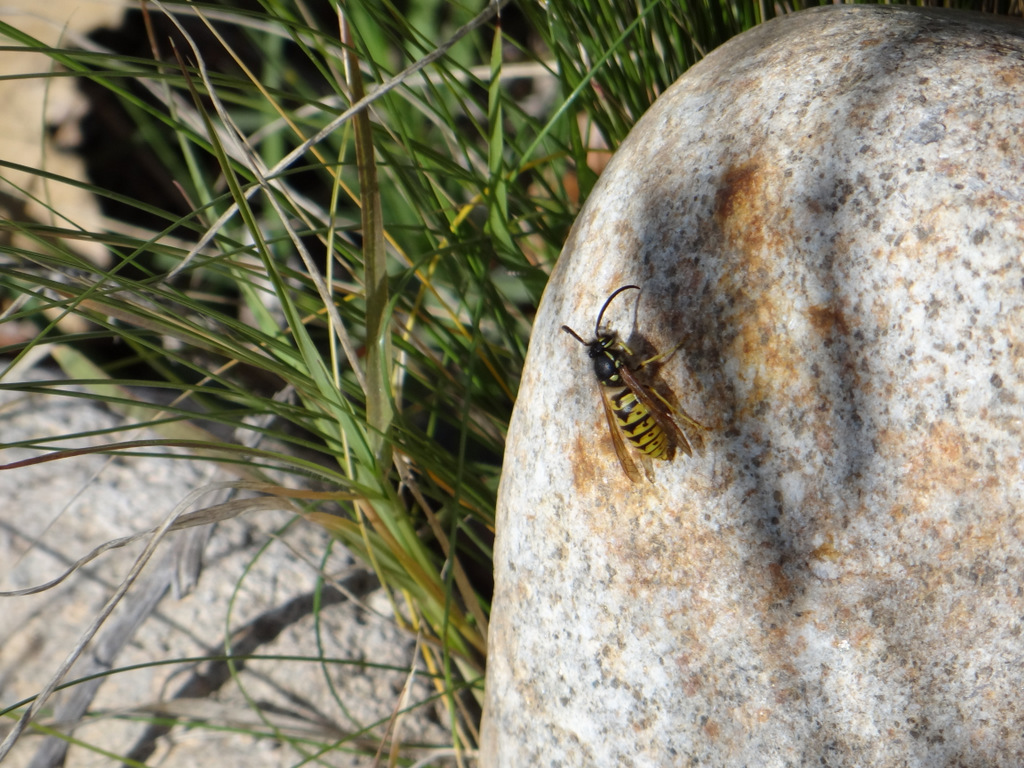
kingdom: Animalia
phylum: Arthropoda
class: Insecta
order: Hymenoptera
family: Vespidae
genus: Vespula
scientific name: Vespula germanica
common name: German wasp
